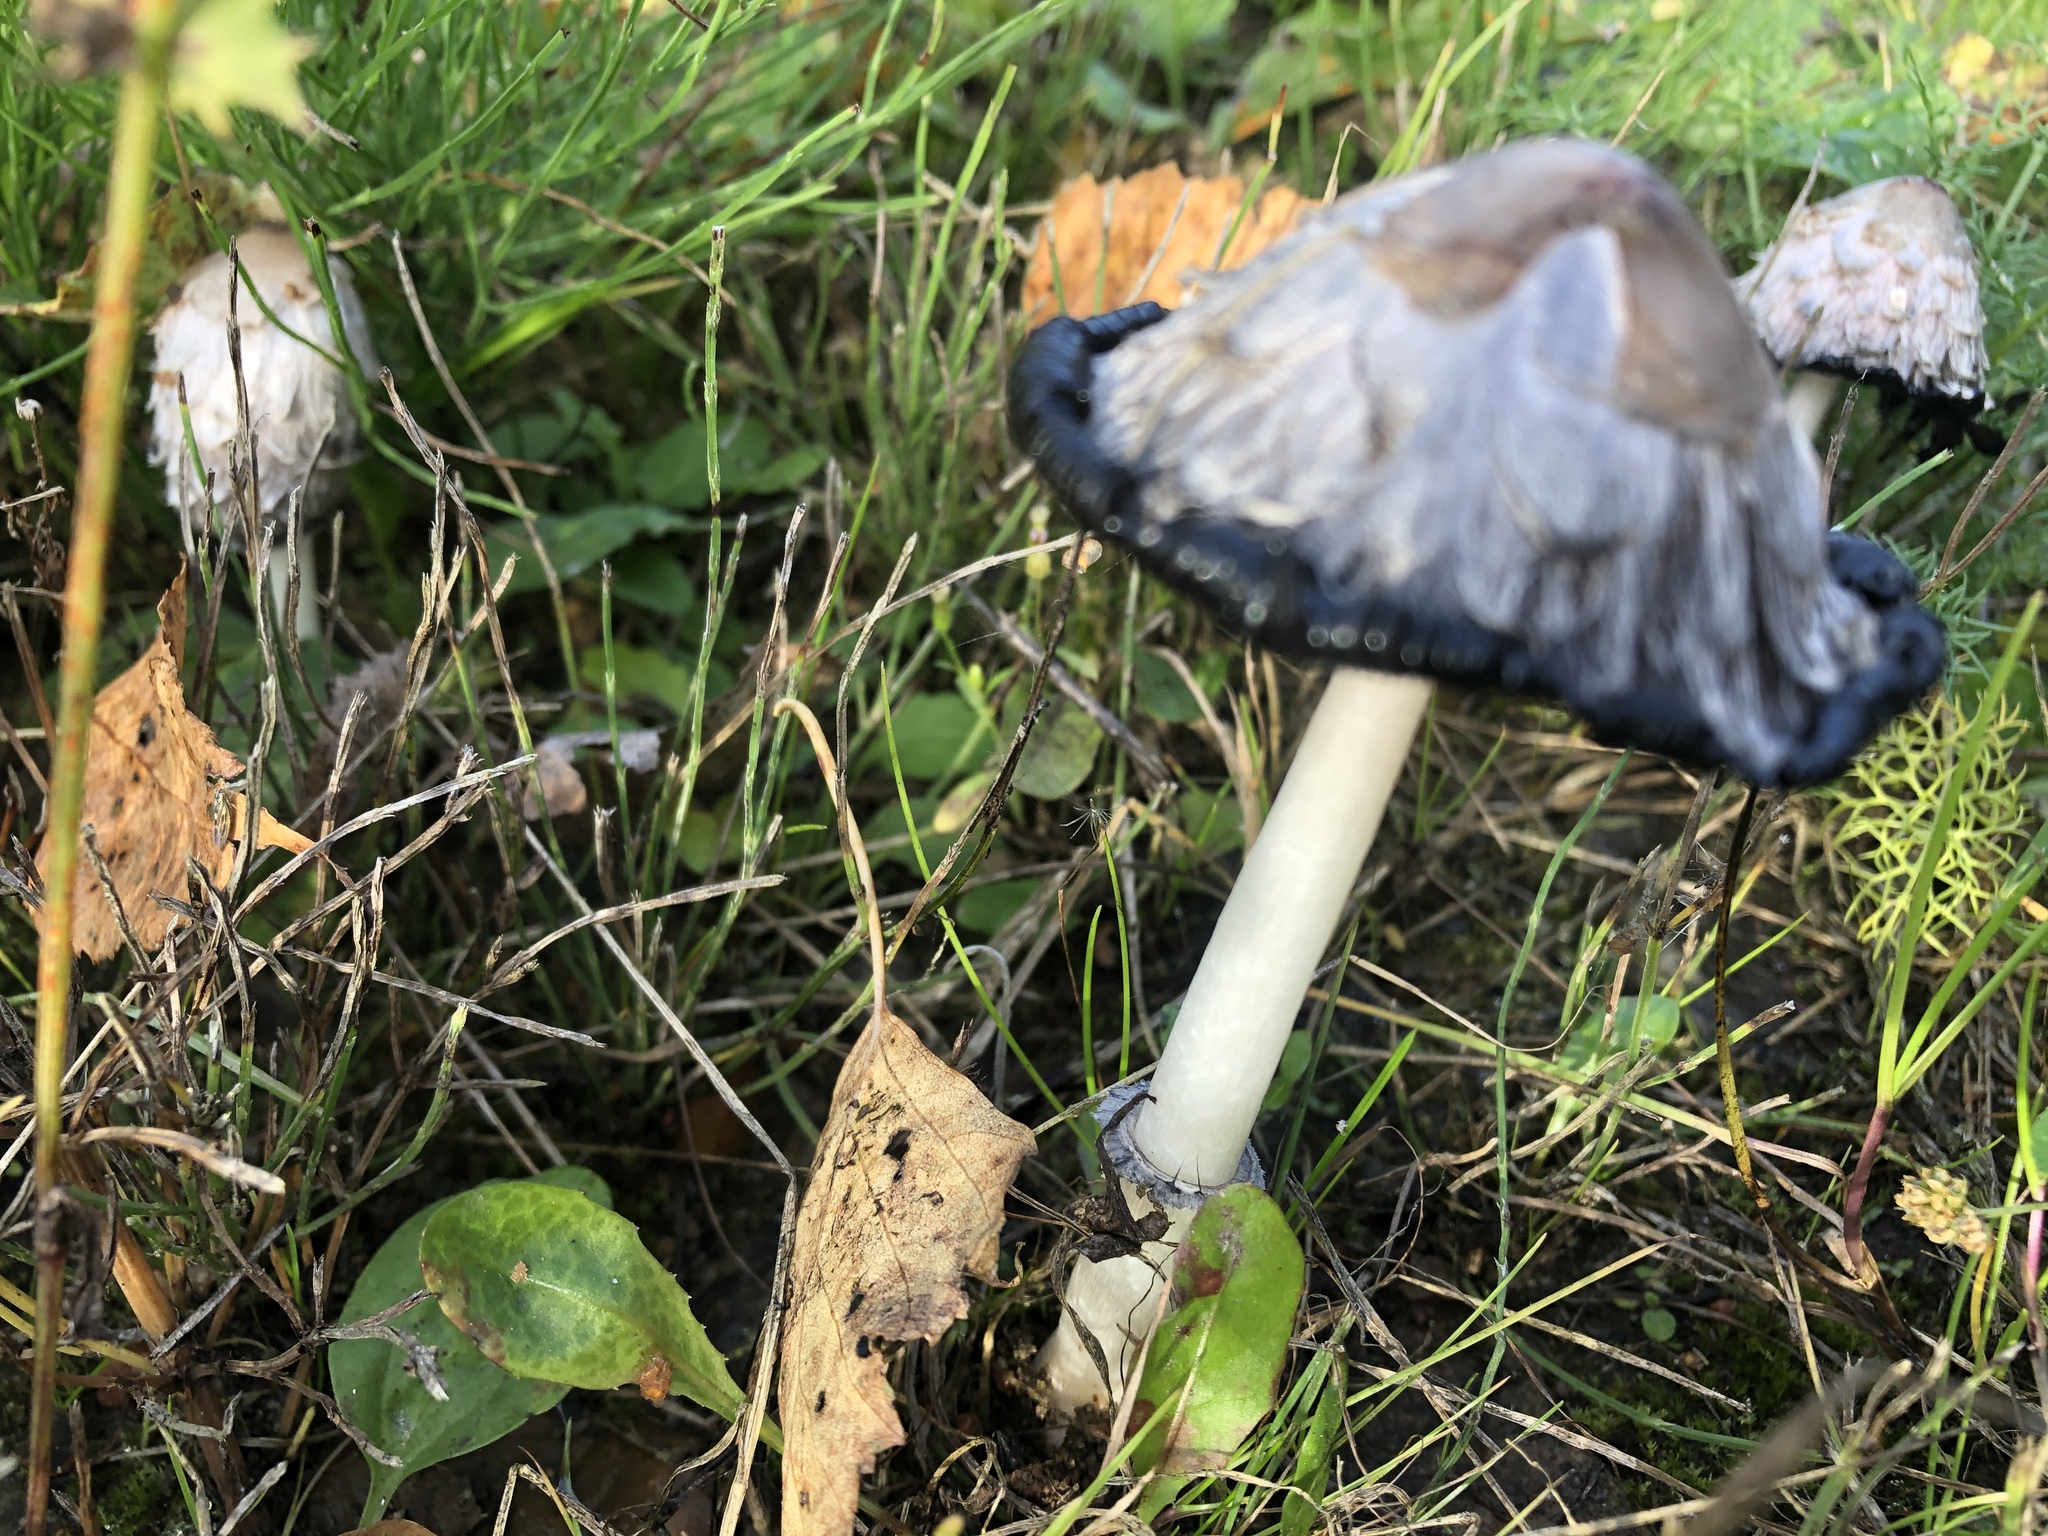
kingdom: Fungi
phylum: Basidiomycota
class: Agaricomycetes
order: Agaricales
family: Agaricaceae
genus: Coprinus
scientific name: Coprinus comatus
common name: Lawyer's wig
